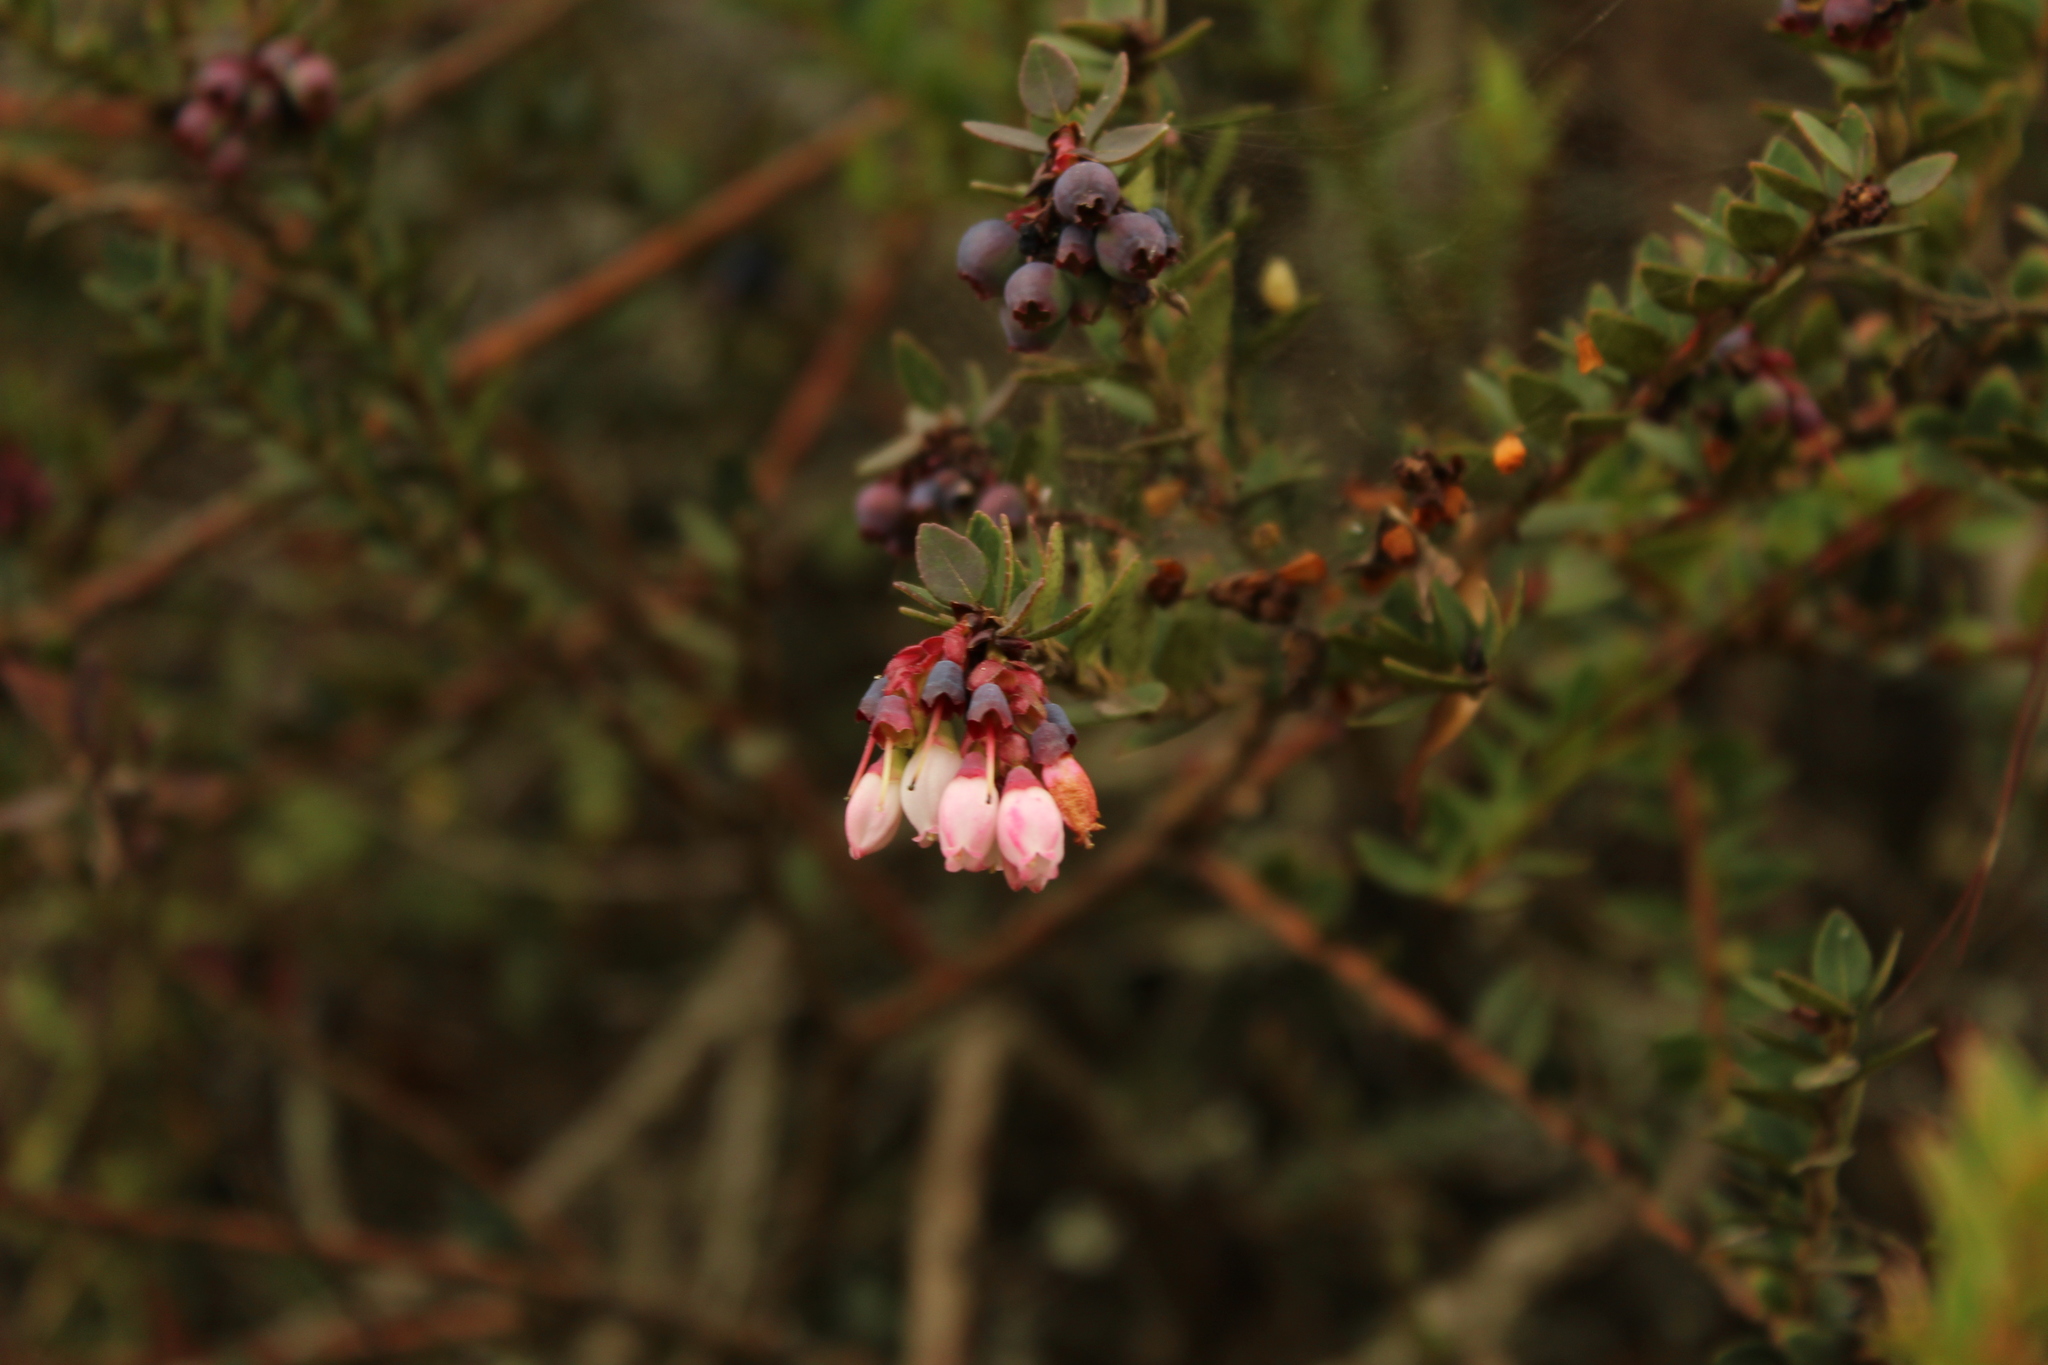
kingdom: Plantae
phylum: Tracheophyta
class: Magnoliopsida
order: Ericales
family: Ericaceae
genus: Vaccinium
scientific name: Vaccinium floribundum
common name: Colombian blueberry
